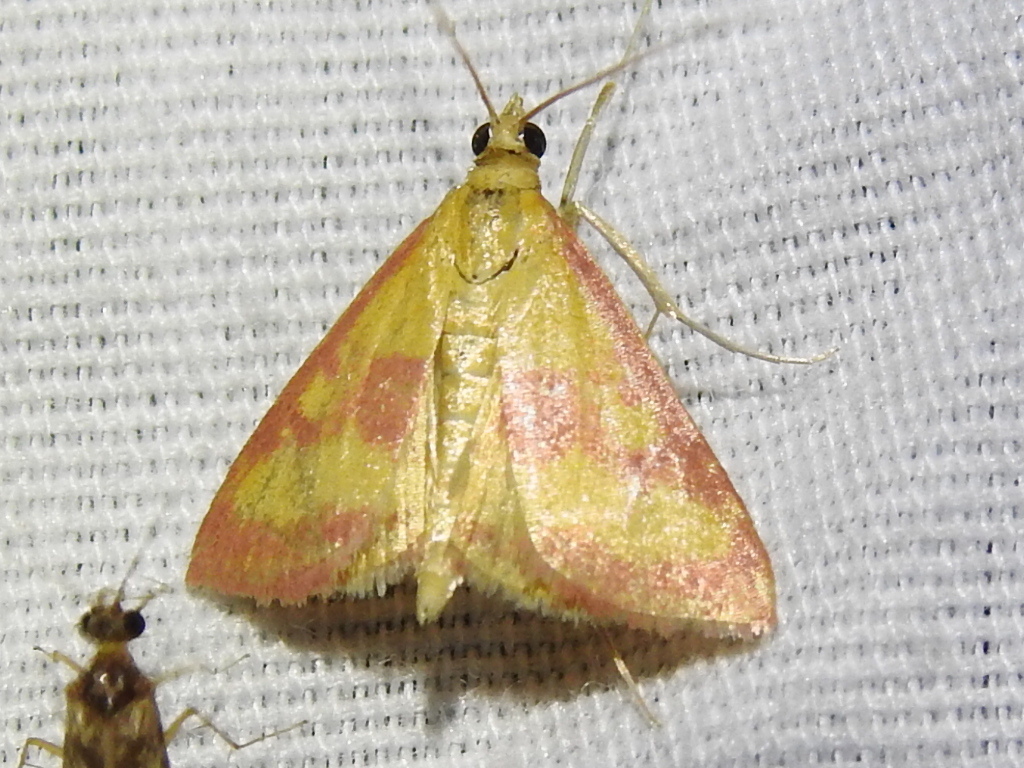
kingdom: Animalia
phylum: Arthropoda
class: Insecta
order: Lepidoptera
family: Crambidae
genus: Pyrausta
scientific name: Pyrausta laticlavia
